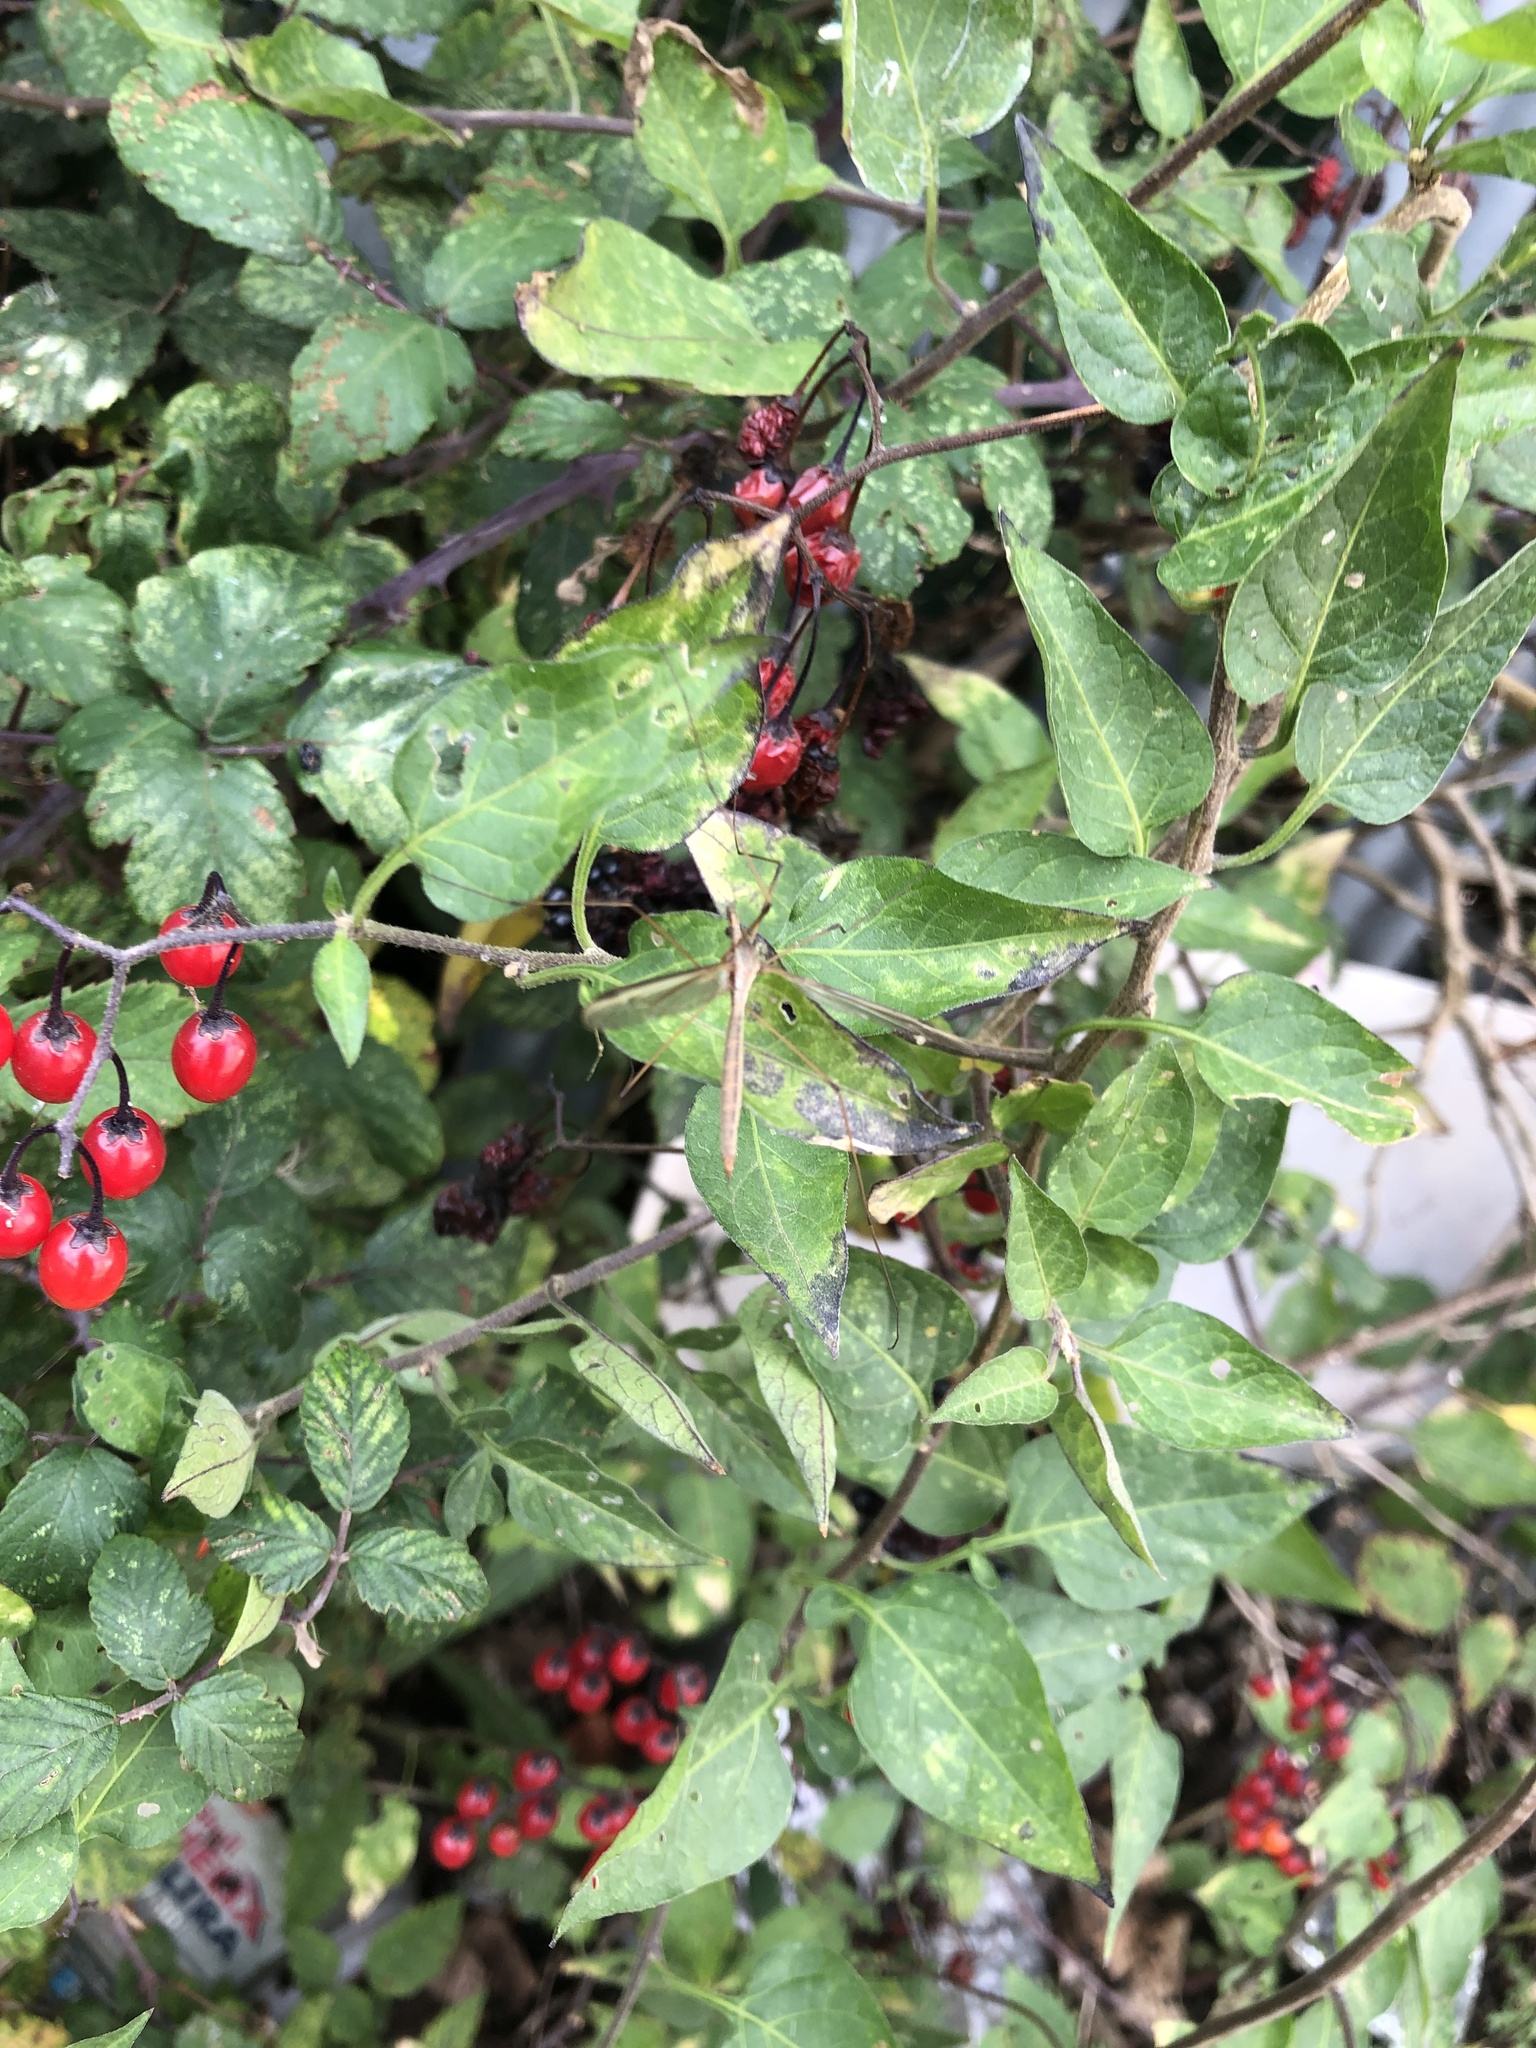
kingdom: Plantae
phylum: Tracheophyta
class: Magnoliopsida
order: Solanales
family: Solanaceae
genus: Solanum
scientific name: Solanum dulcamara
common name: Climbing nightshade
